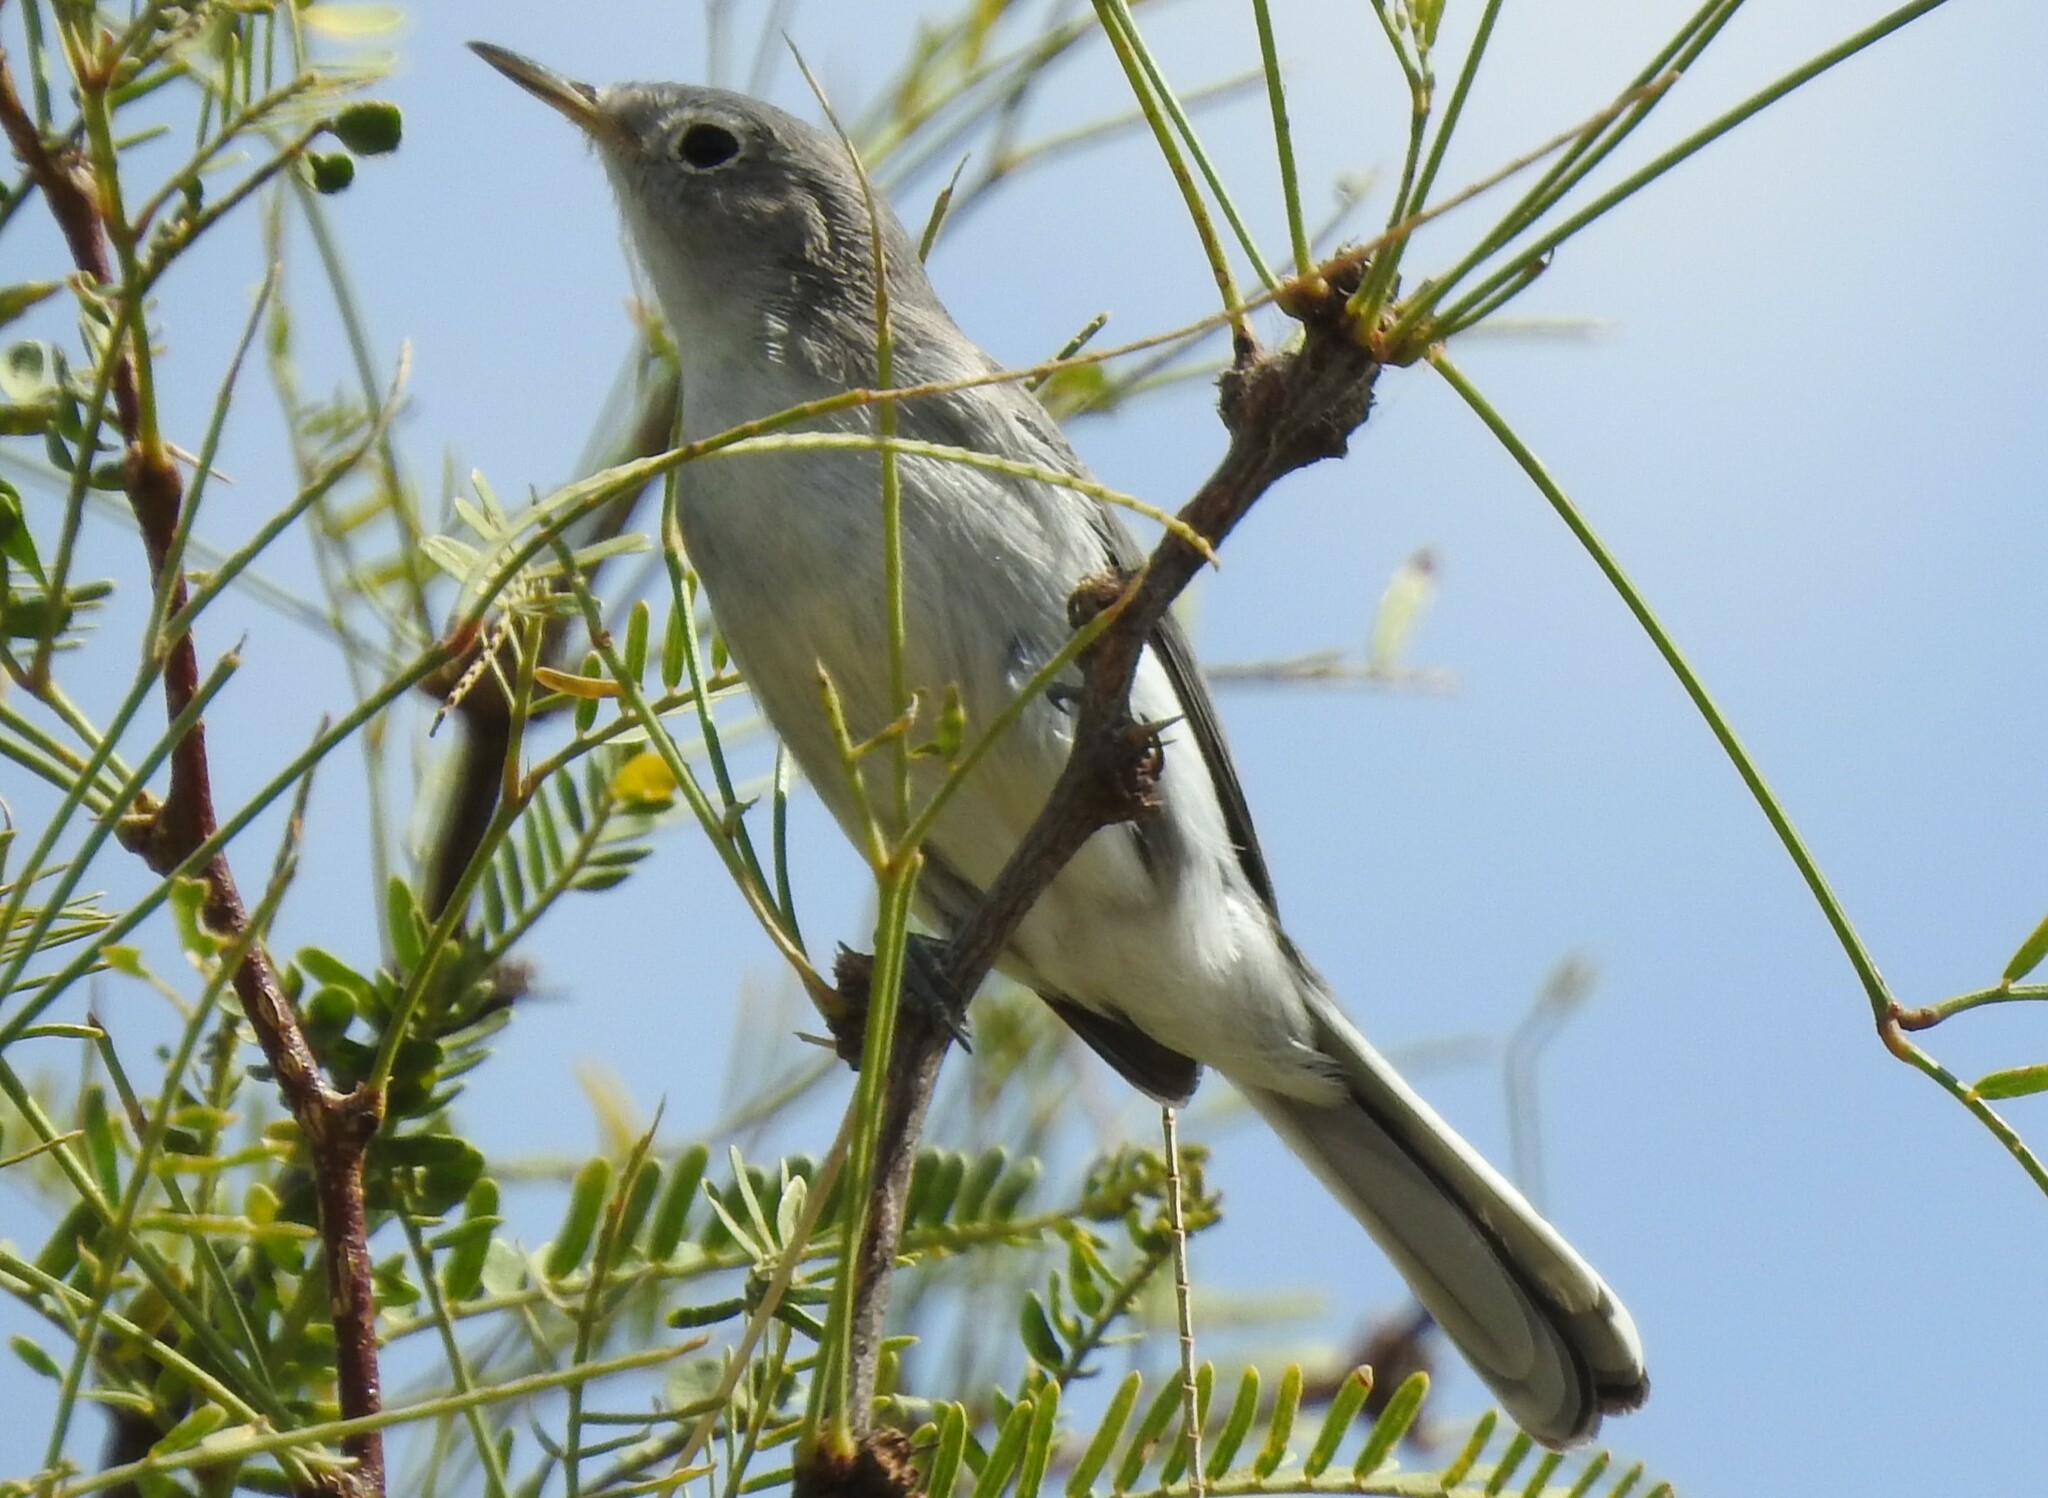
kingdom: Animalia
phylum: Chordata
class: Aves
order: Passeriformes
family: Polioptilidae
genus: Polioptila
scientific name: Polioptila caerulea
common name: Blue-gray gnatcatcher
